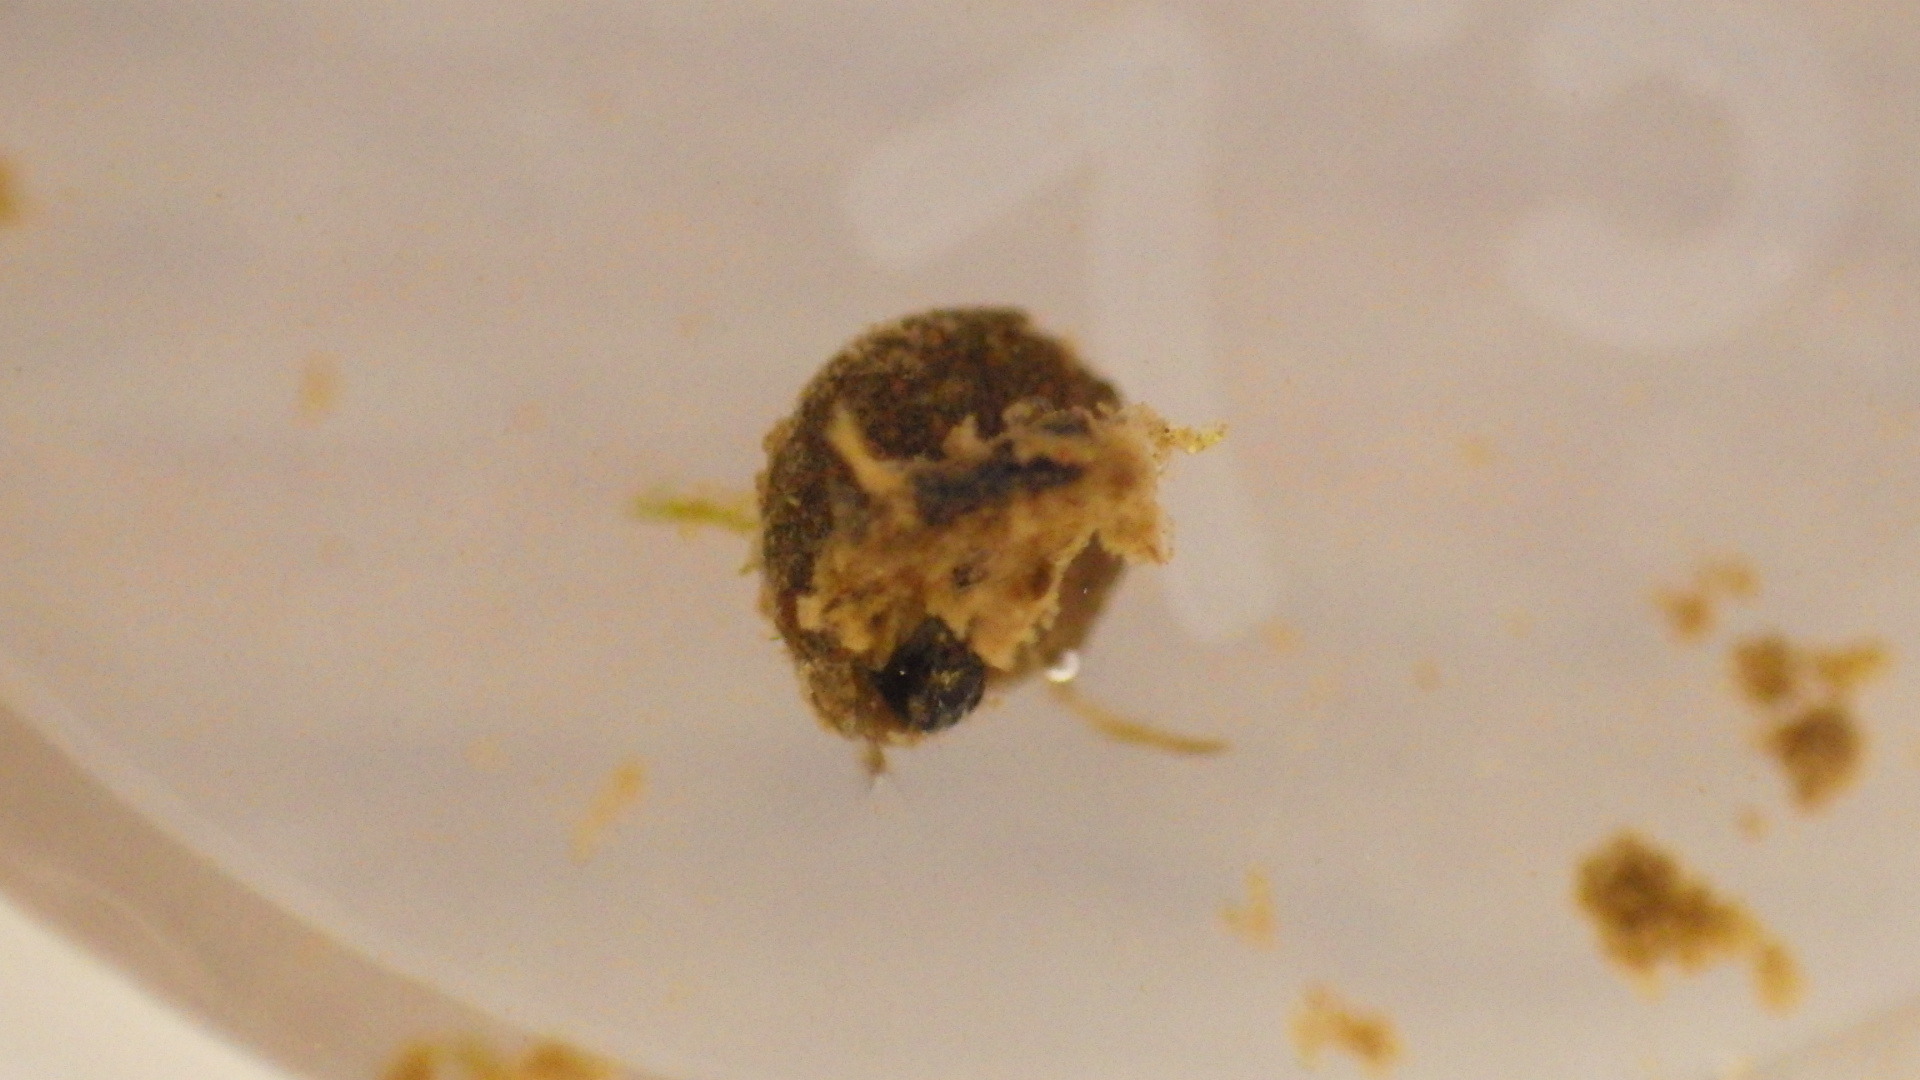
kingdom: Animalia
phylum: Arthropoda
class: Insecta
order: Trichoptera
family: Helicopsychidae
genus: Helicopsyche
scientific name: Helicopsyche borealis
